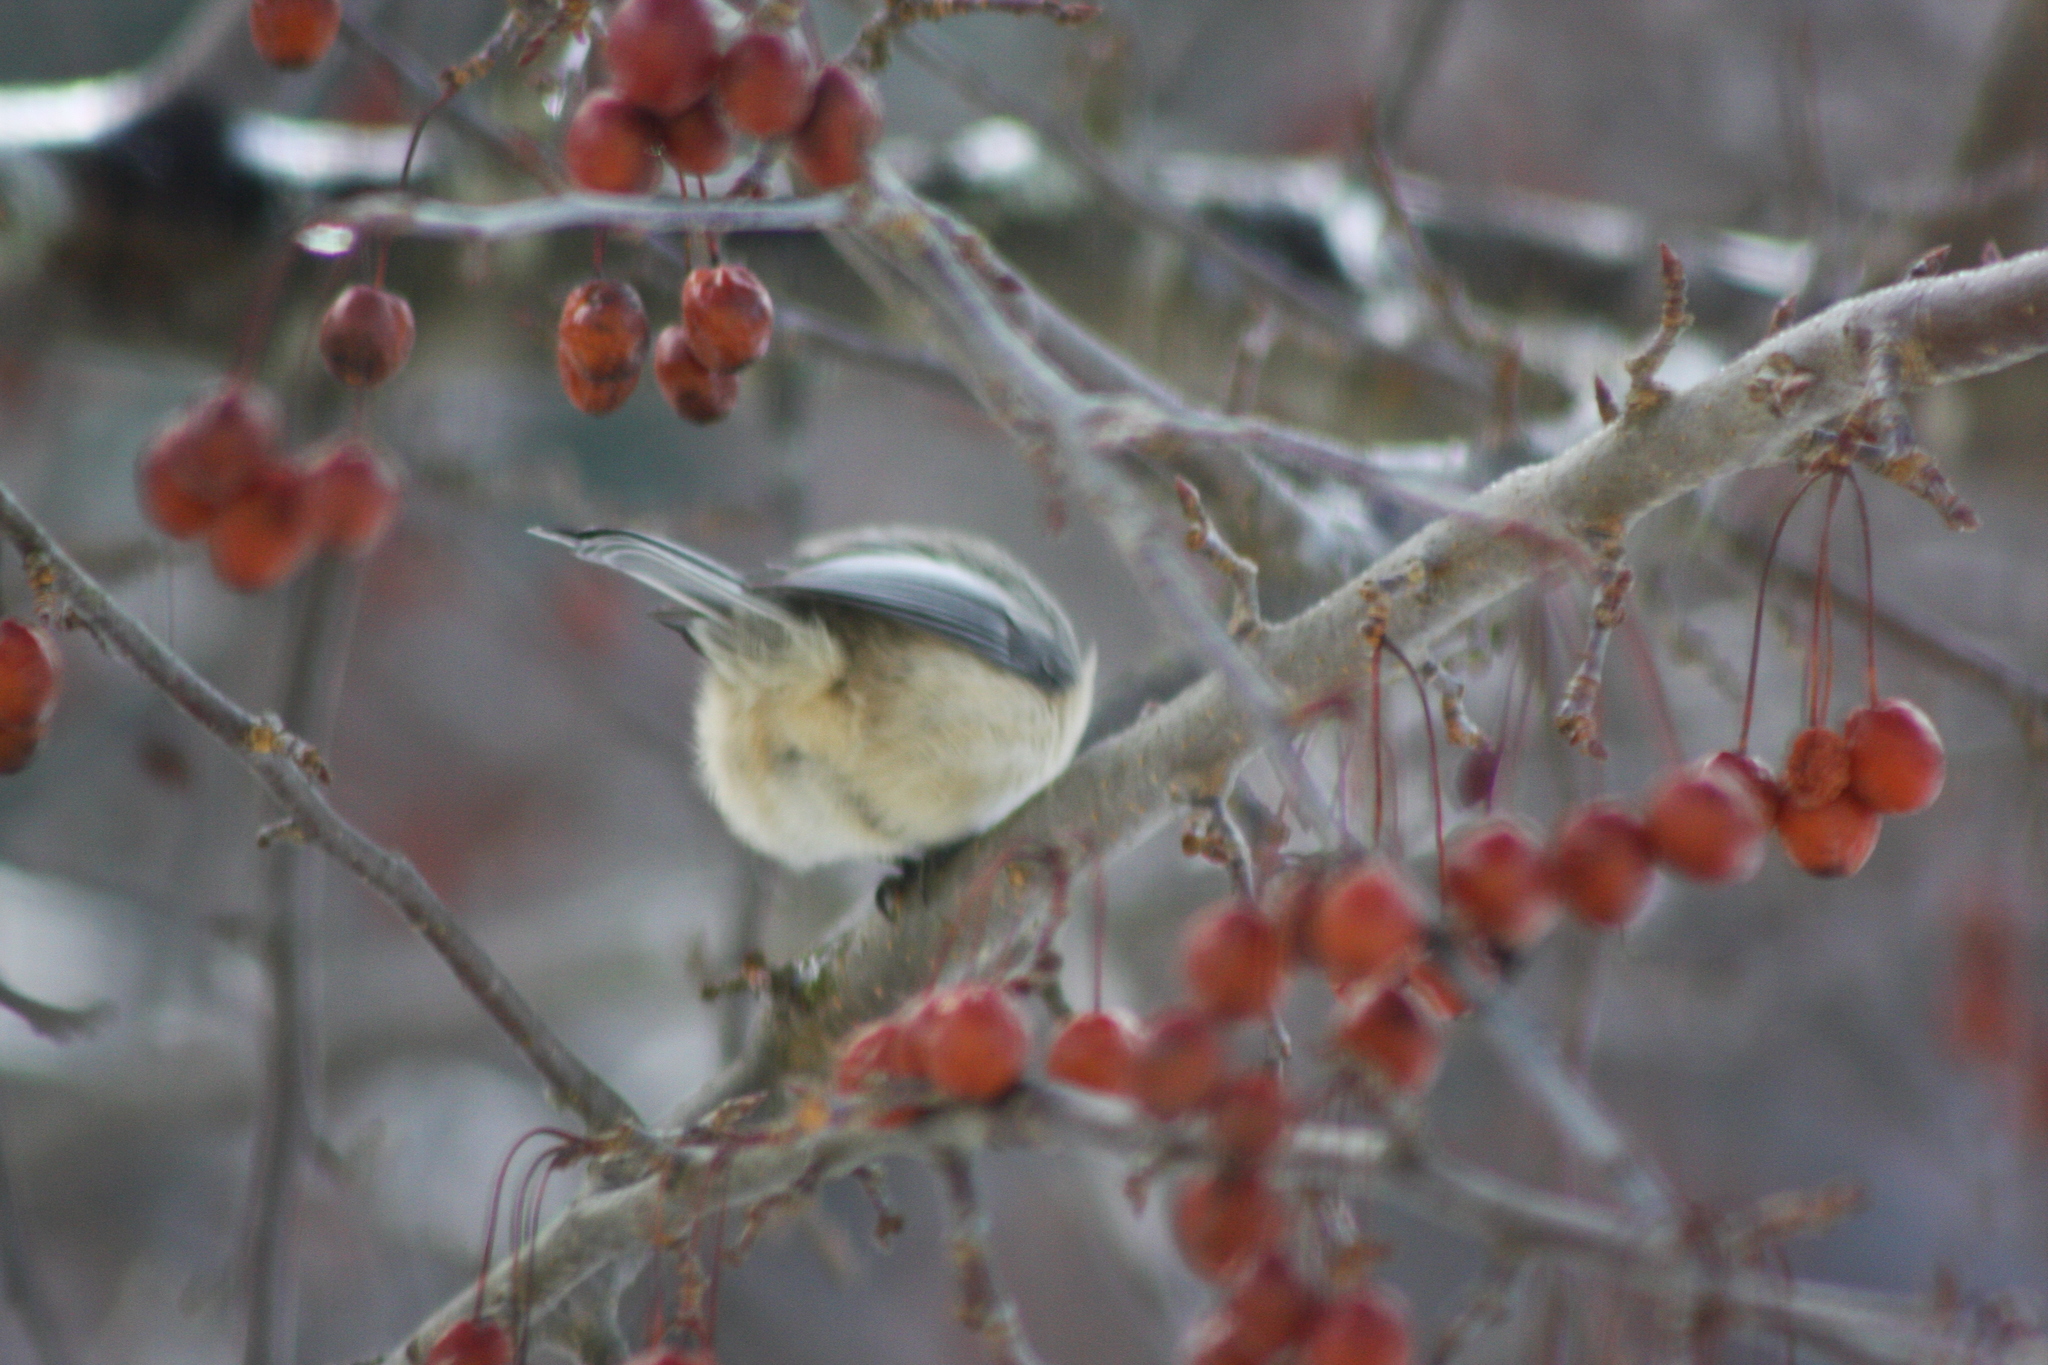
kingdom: Animalia
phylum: Chordata
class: Aves
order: Passeriformes
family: Paridae
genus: Poecile
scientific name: Poecile atricapillus
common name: Black-capped chickadee
